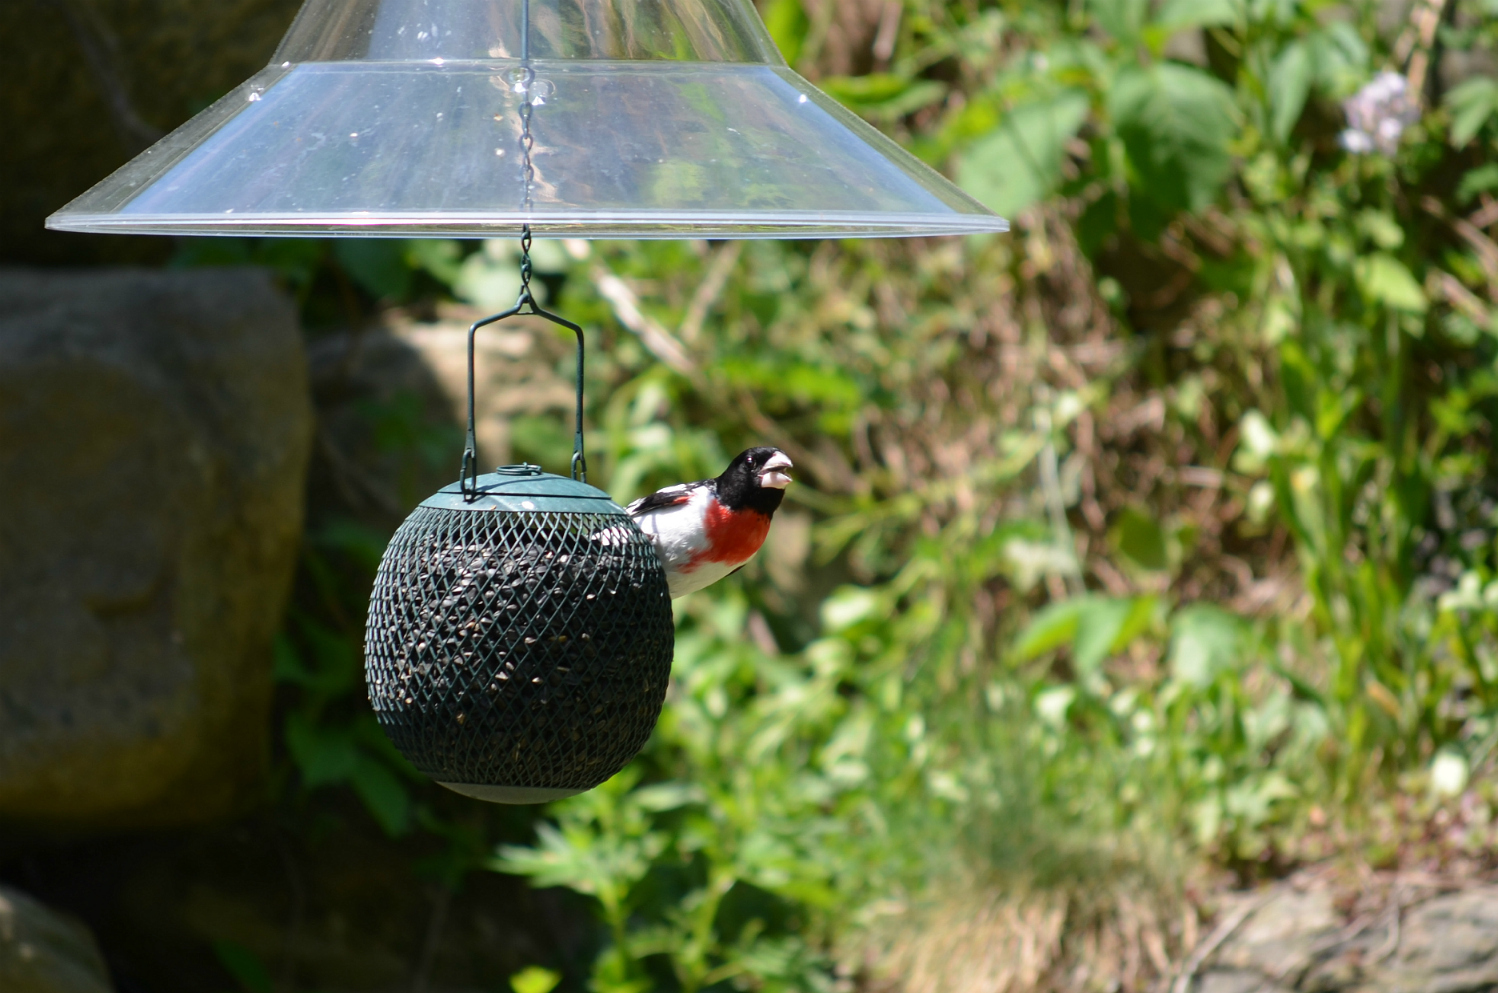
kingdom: Animalia
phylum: Chordata
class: Aves
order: Passeriformes
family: Cardinalidae
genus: Pheucticus
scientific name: Pheucticus ludovicianus
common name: Rose-breasted grosbeak
